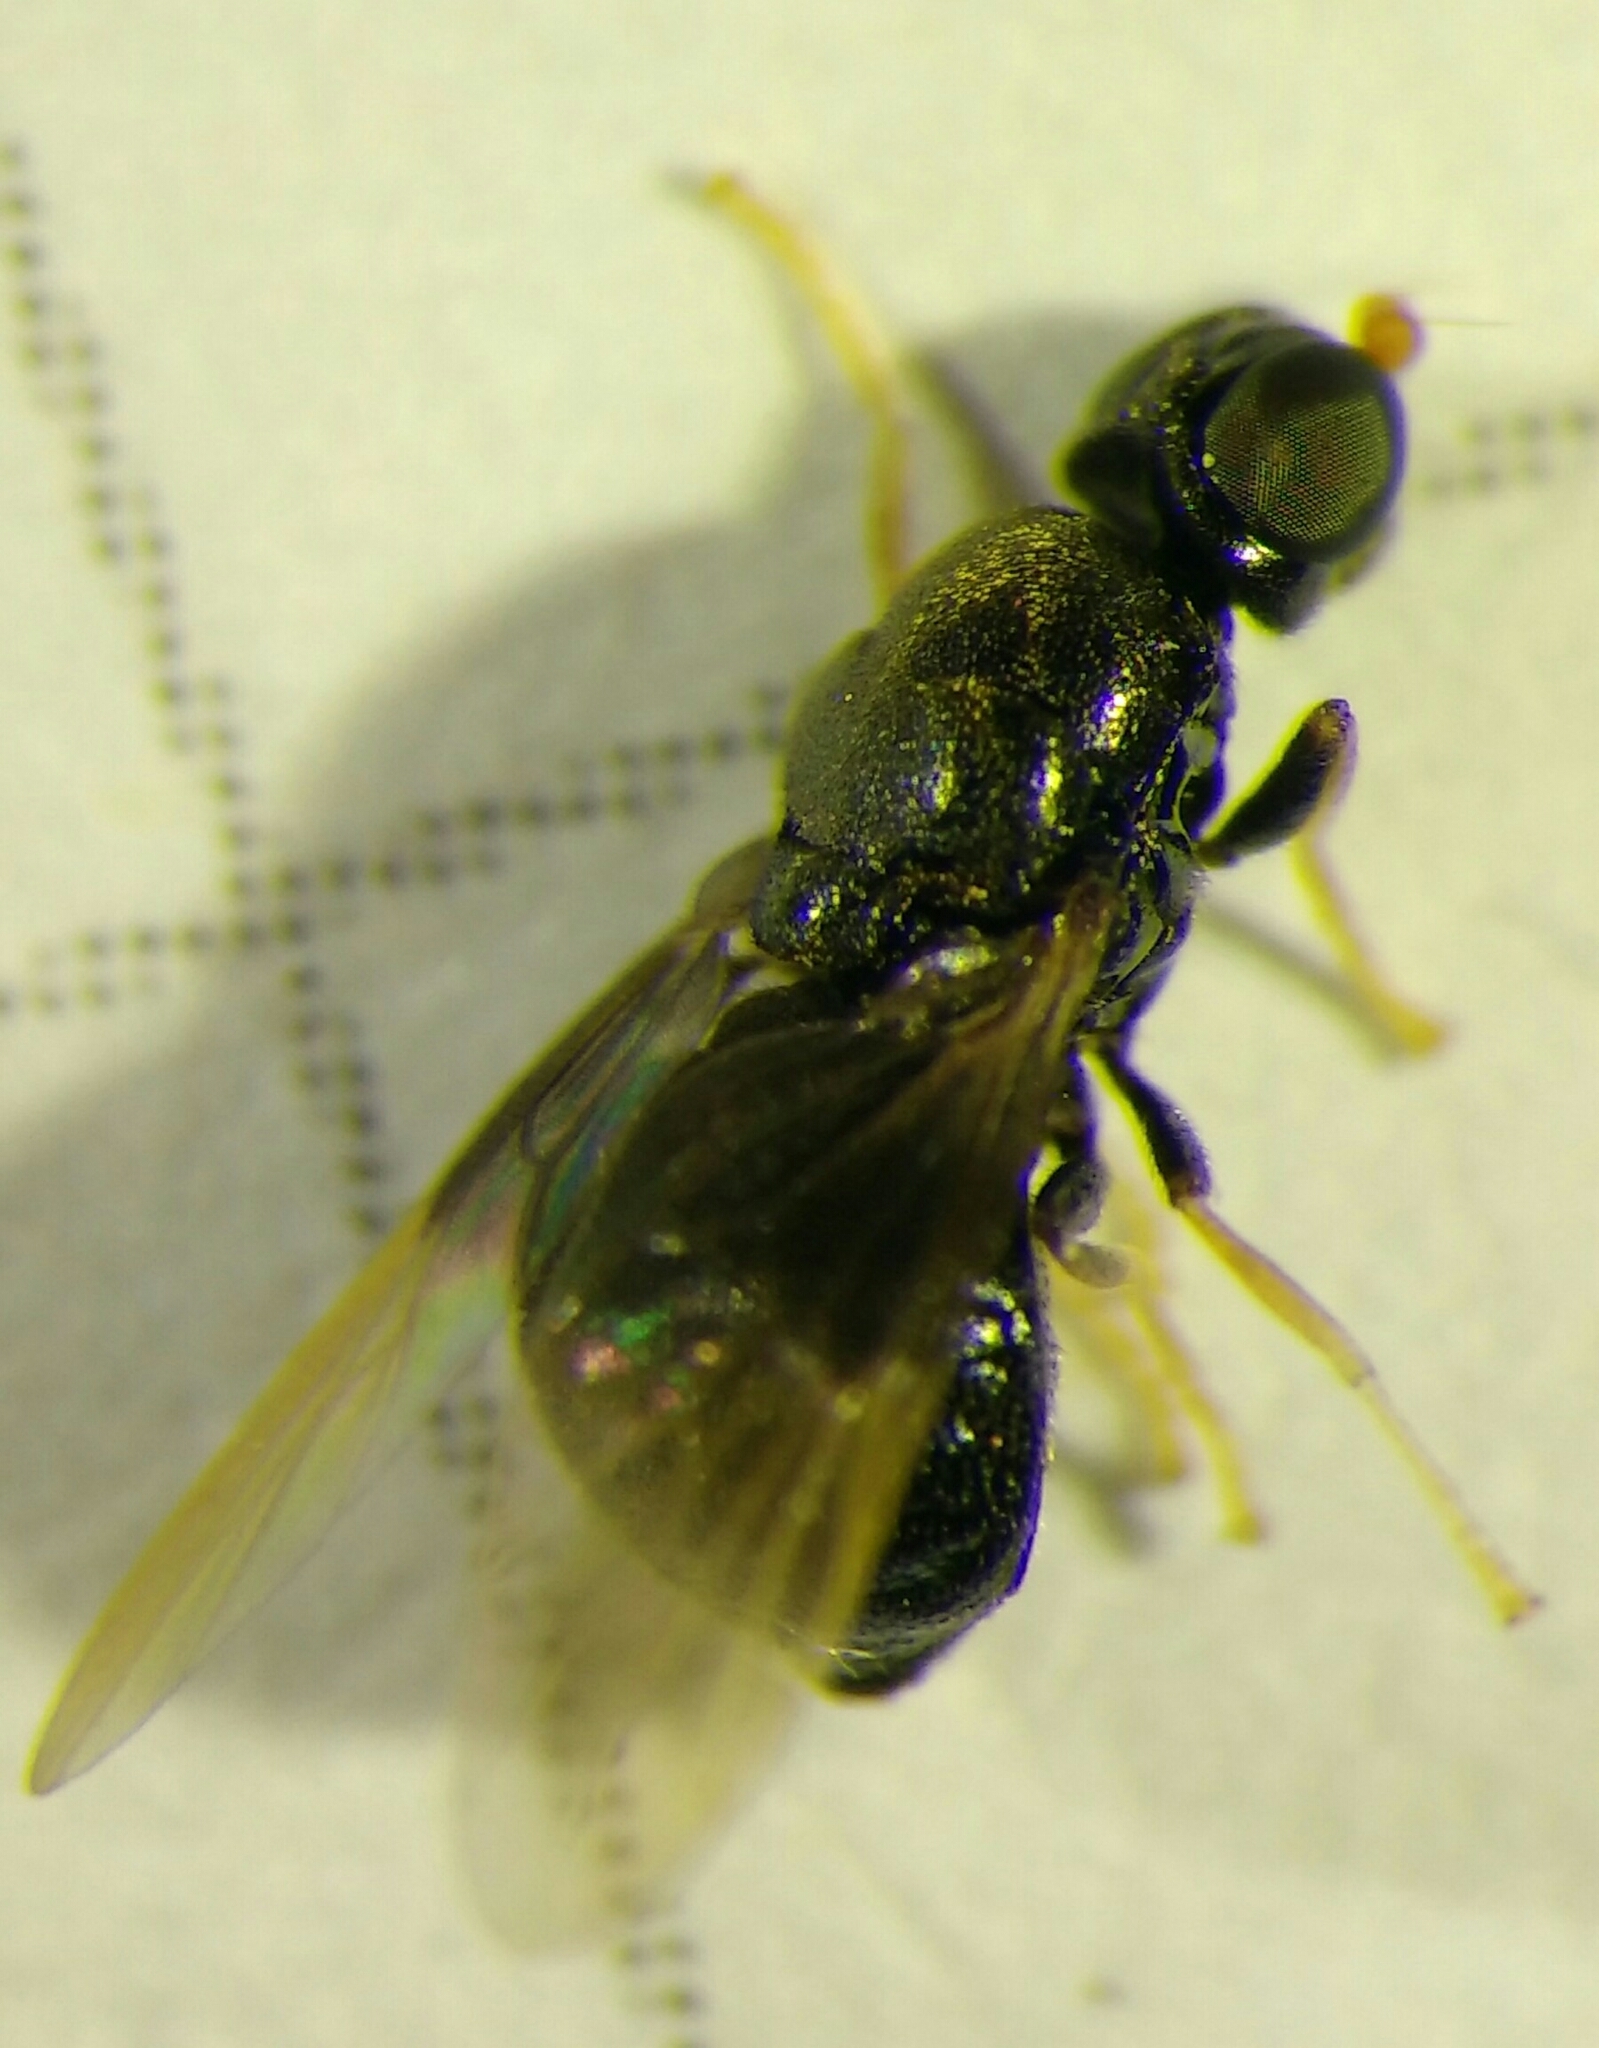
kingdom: Animalia
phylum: Arthropoda
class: Insecta
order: Diptera
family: Stratiomyidae
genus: Pachygaster
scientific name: Pachygaster atra
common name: Dark-winged black
